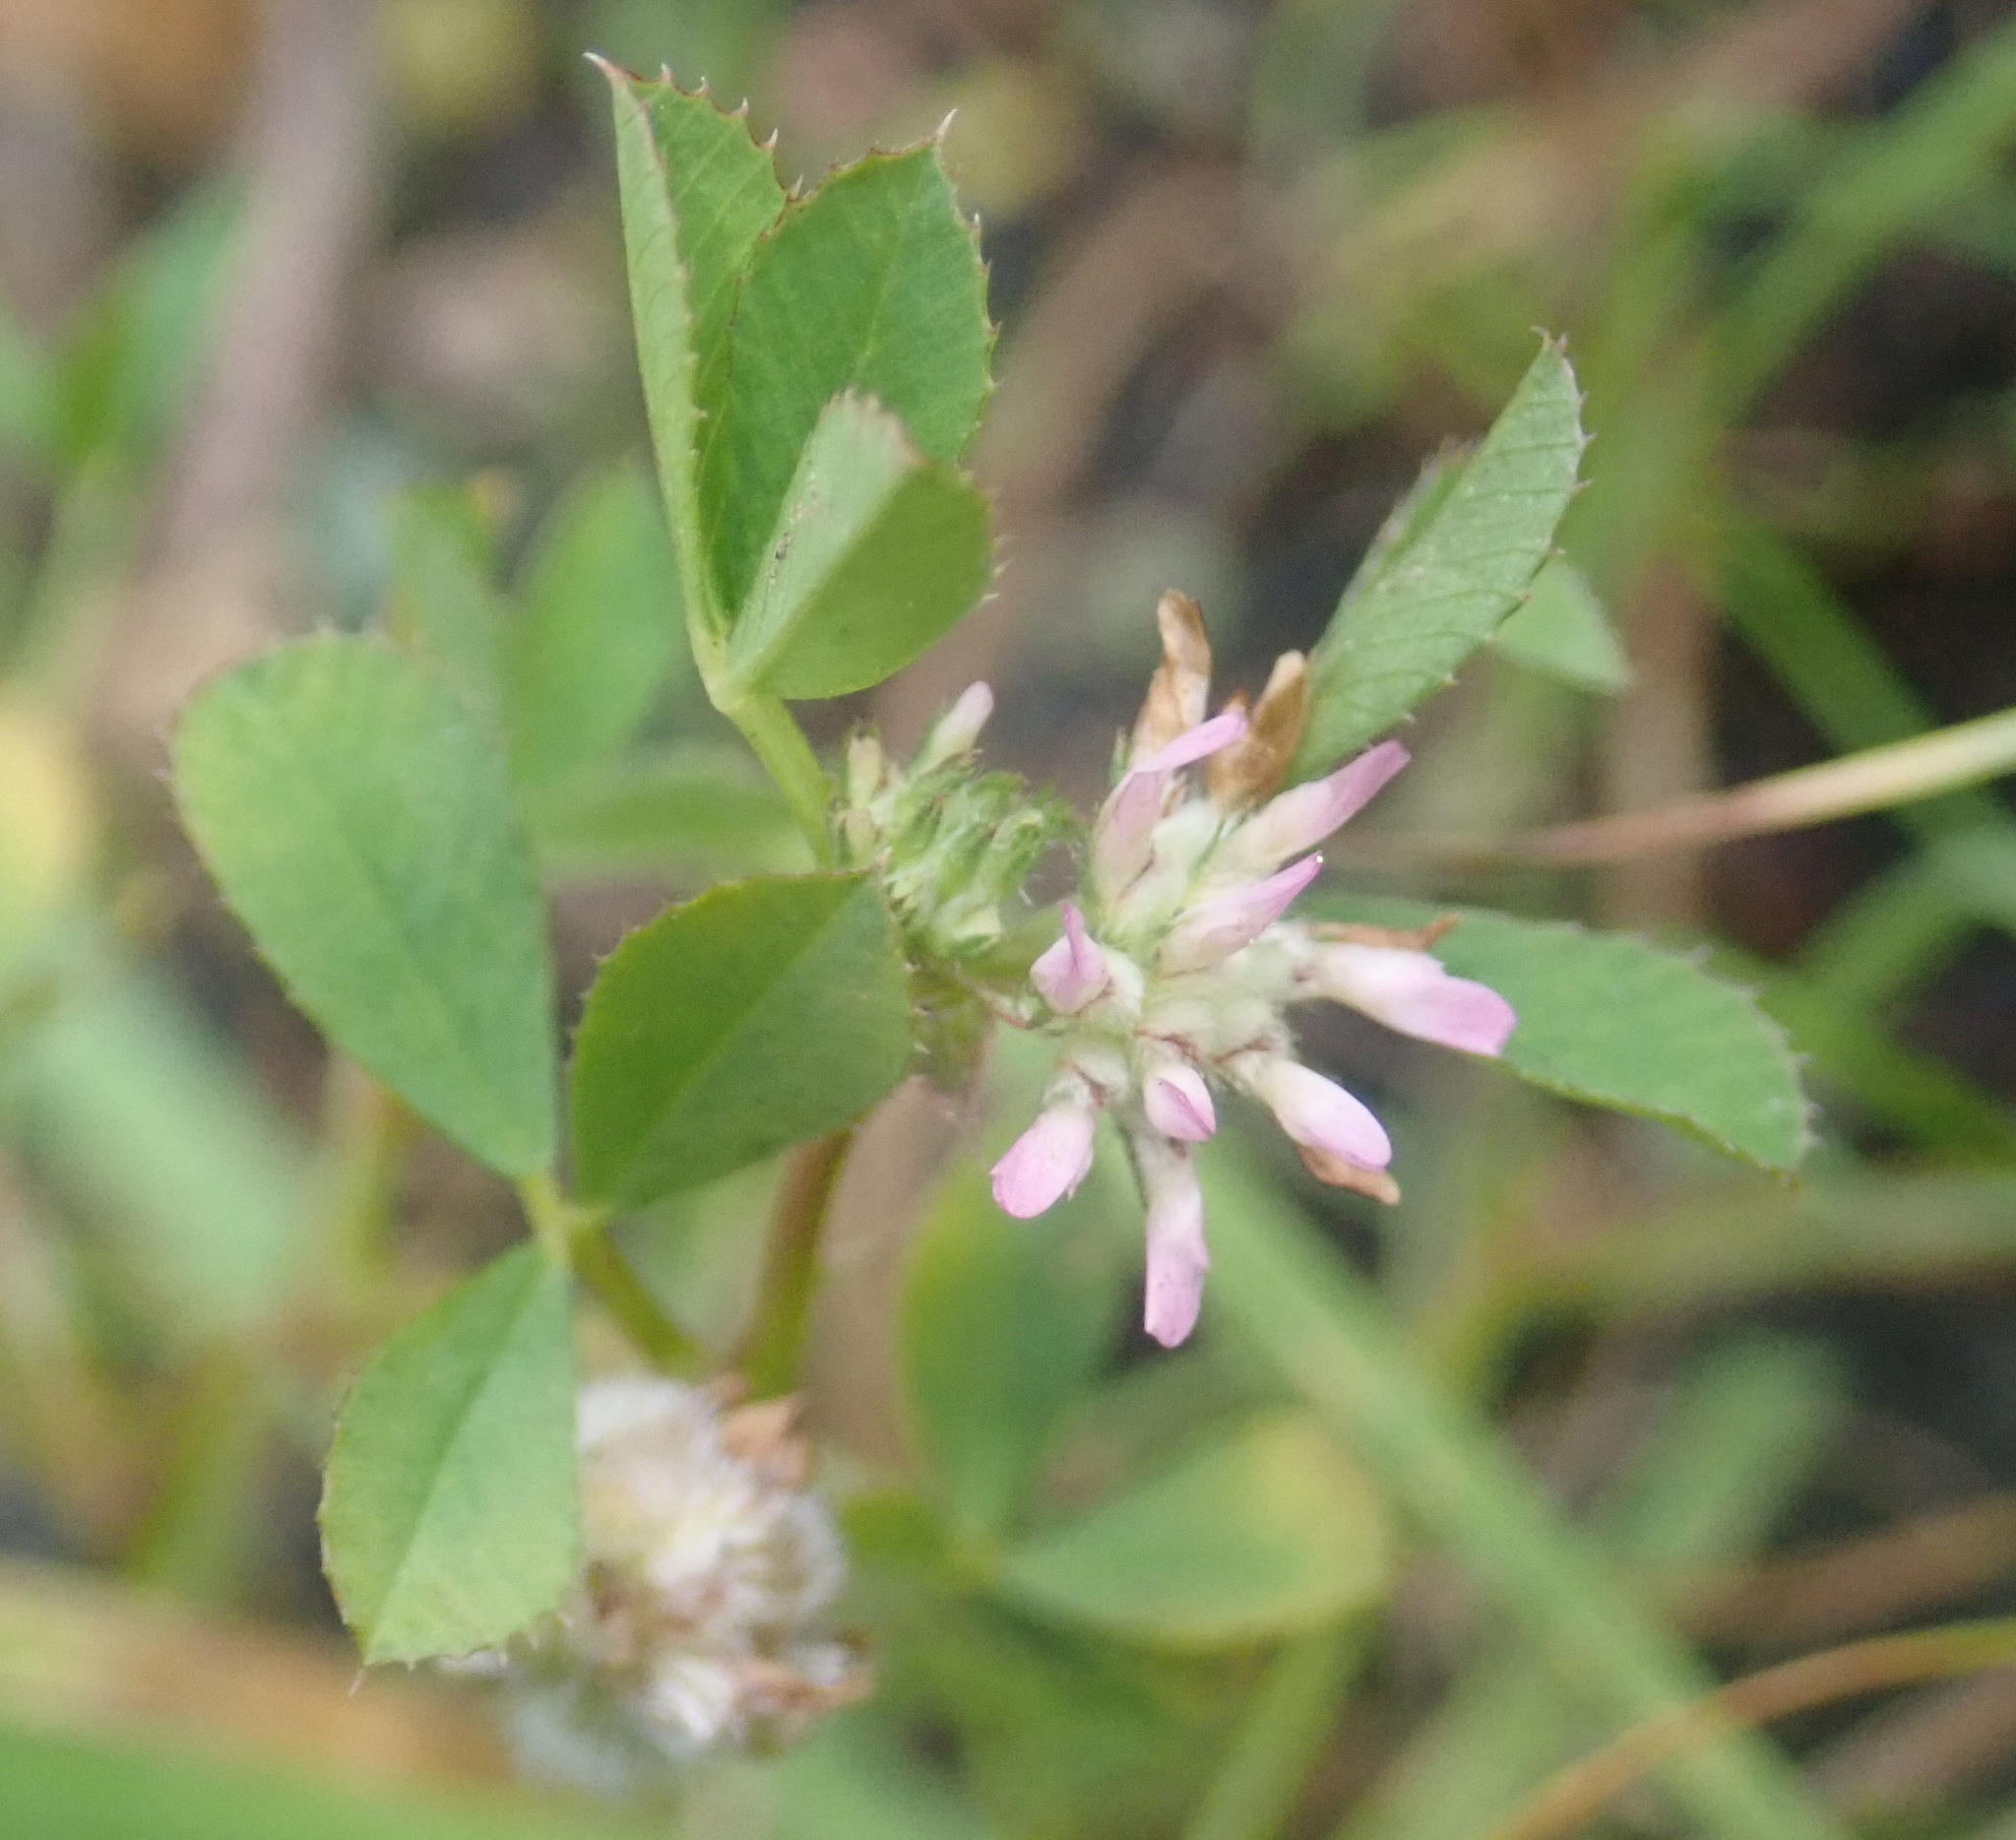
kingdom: Plantae
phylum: Tracheophyta
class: Magnoliopsida
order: Fabales
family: Fabaceae
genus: Trifolium
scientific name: Trifolium tomentosum
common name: Woolly clover
